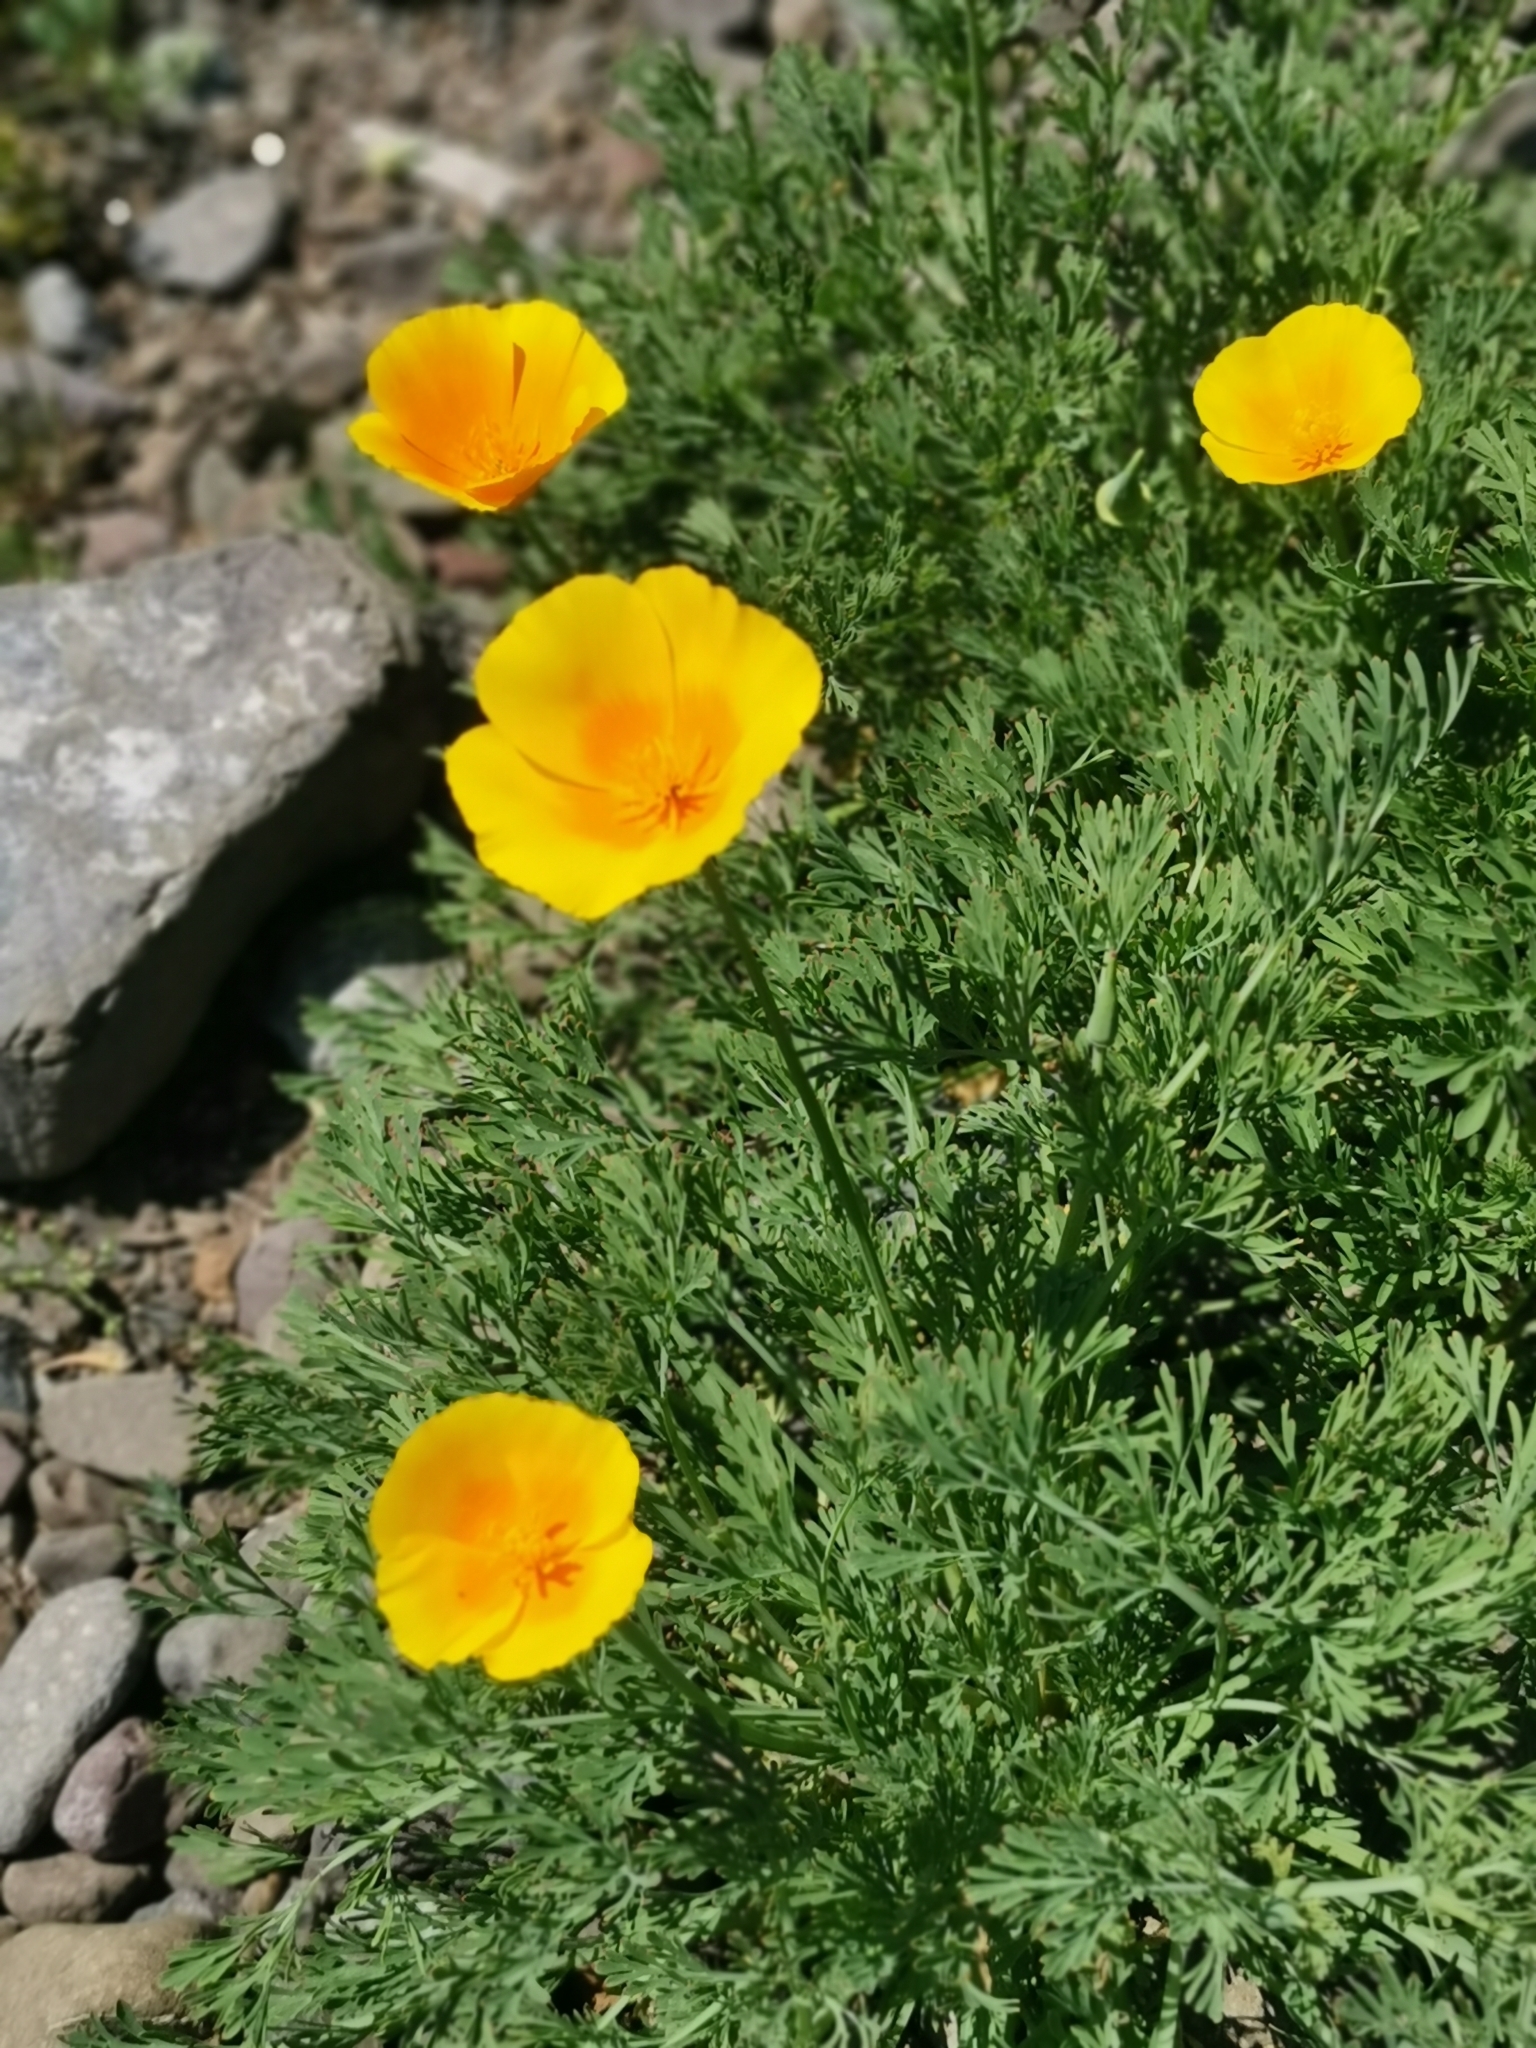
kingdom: Plantae
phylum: Tracheophyta
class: Magnoliopsida
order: Ranunculales
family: Papaveraceae
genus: Eschscholzia
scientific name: Eschscholzia californica
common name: California poppy
